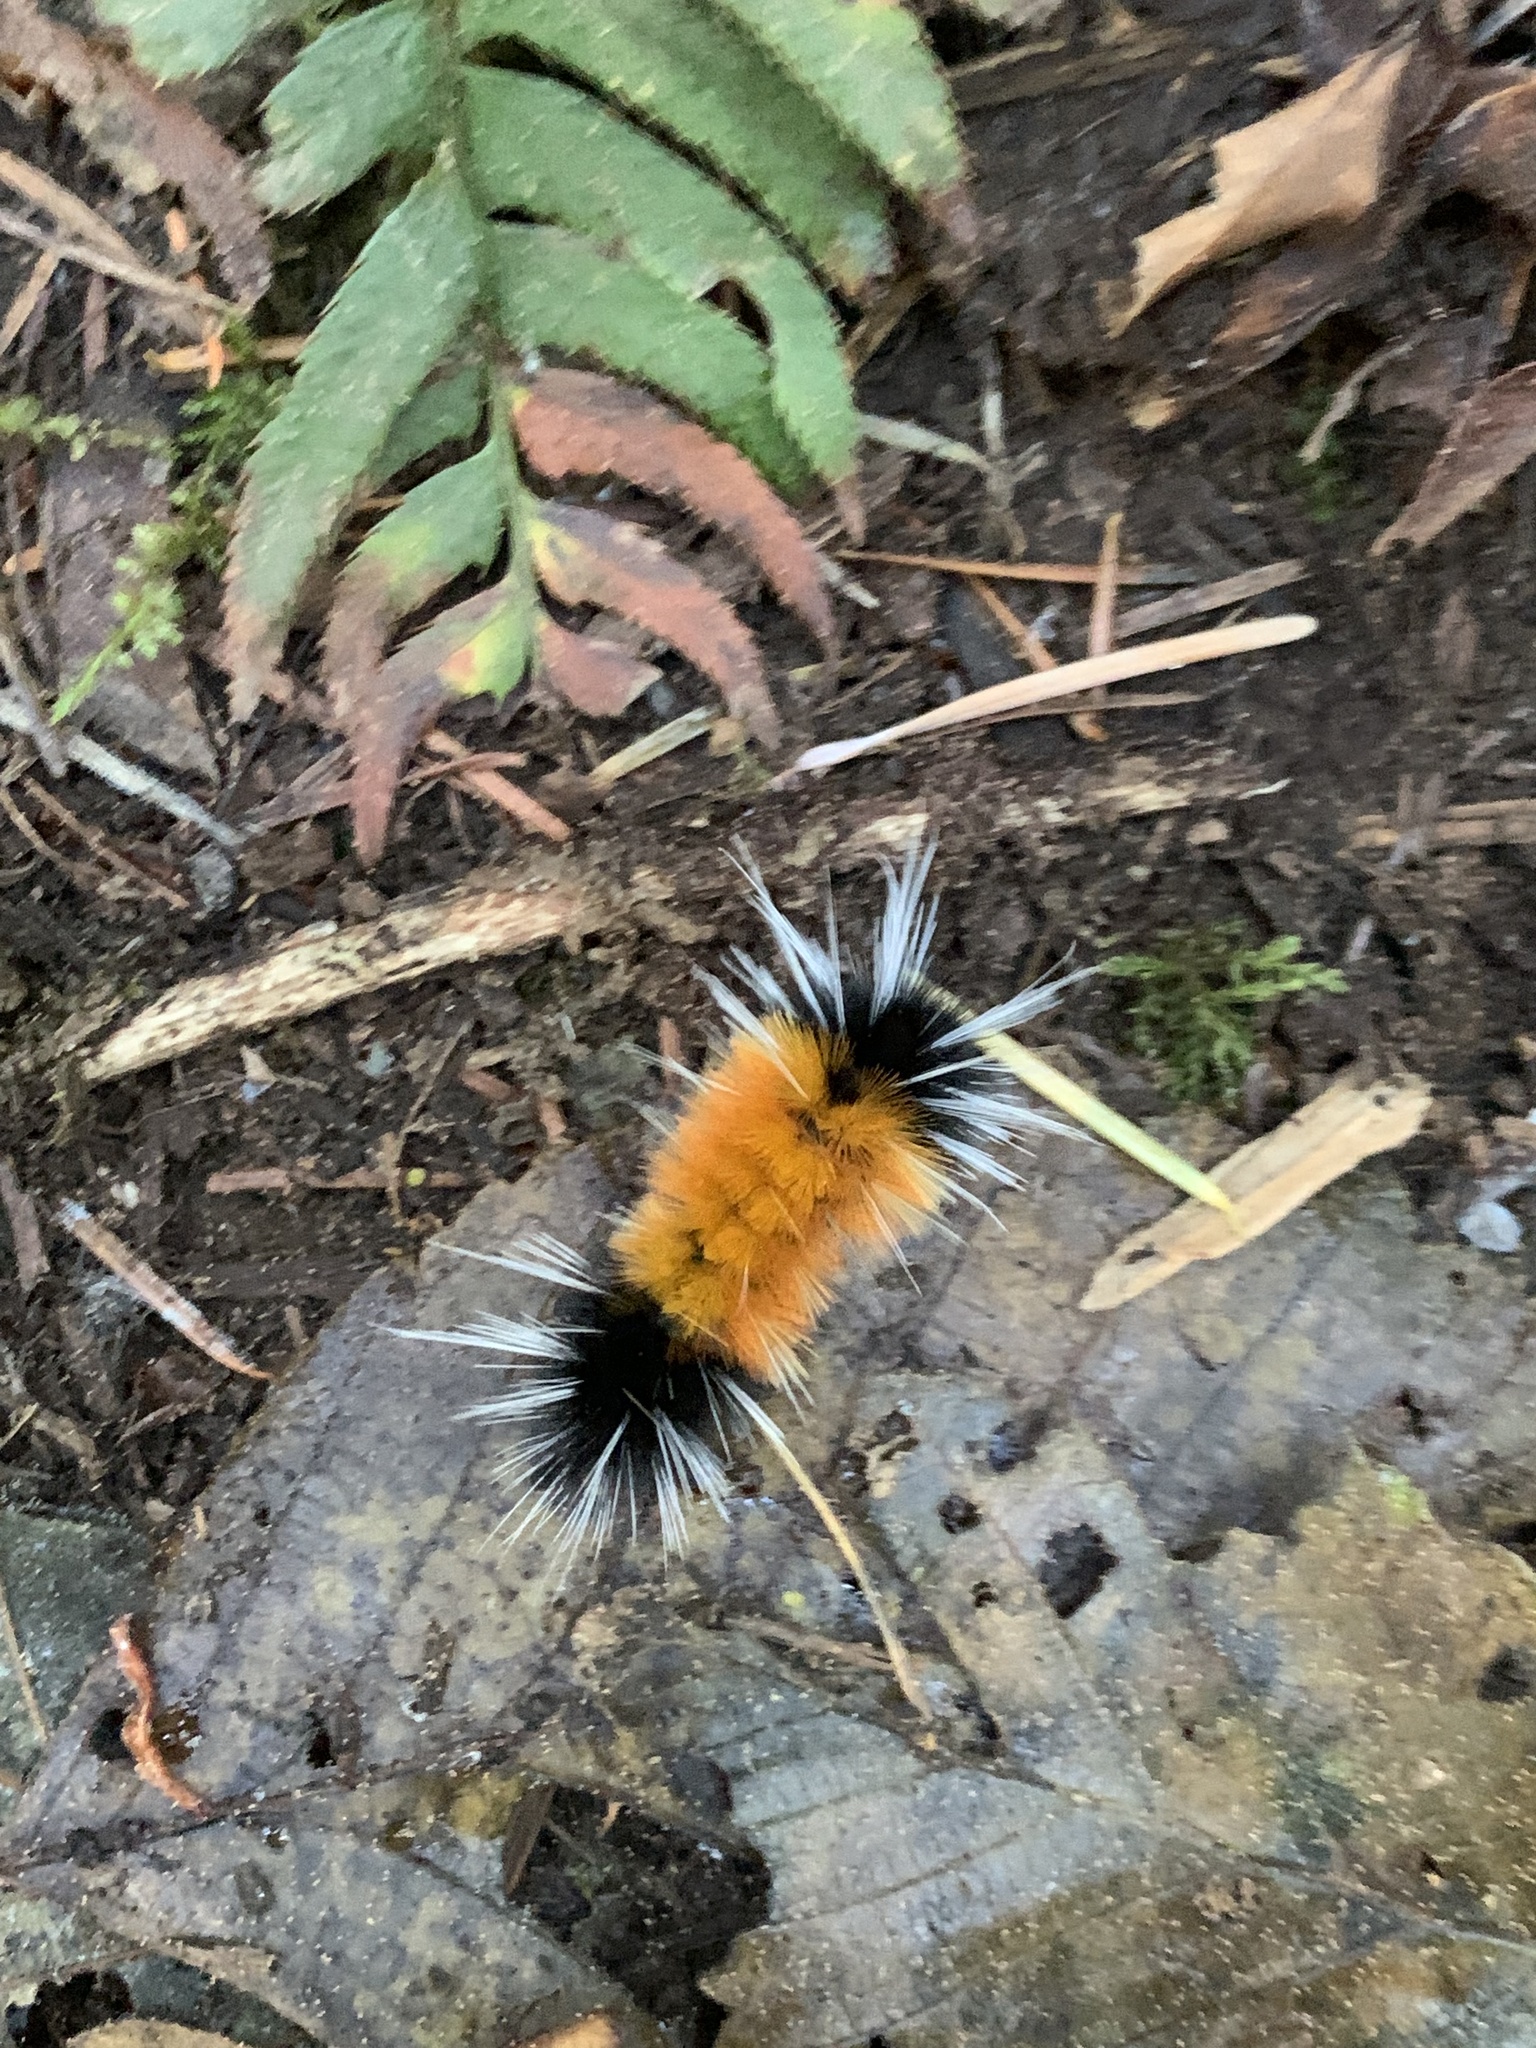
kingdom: Animalia
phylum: Arthropoda
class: Insecta
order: Lepidoptera
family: Erebidae
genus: Lophocampa
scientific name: Lophocampa maculata
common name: Spotted tussock moth
